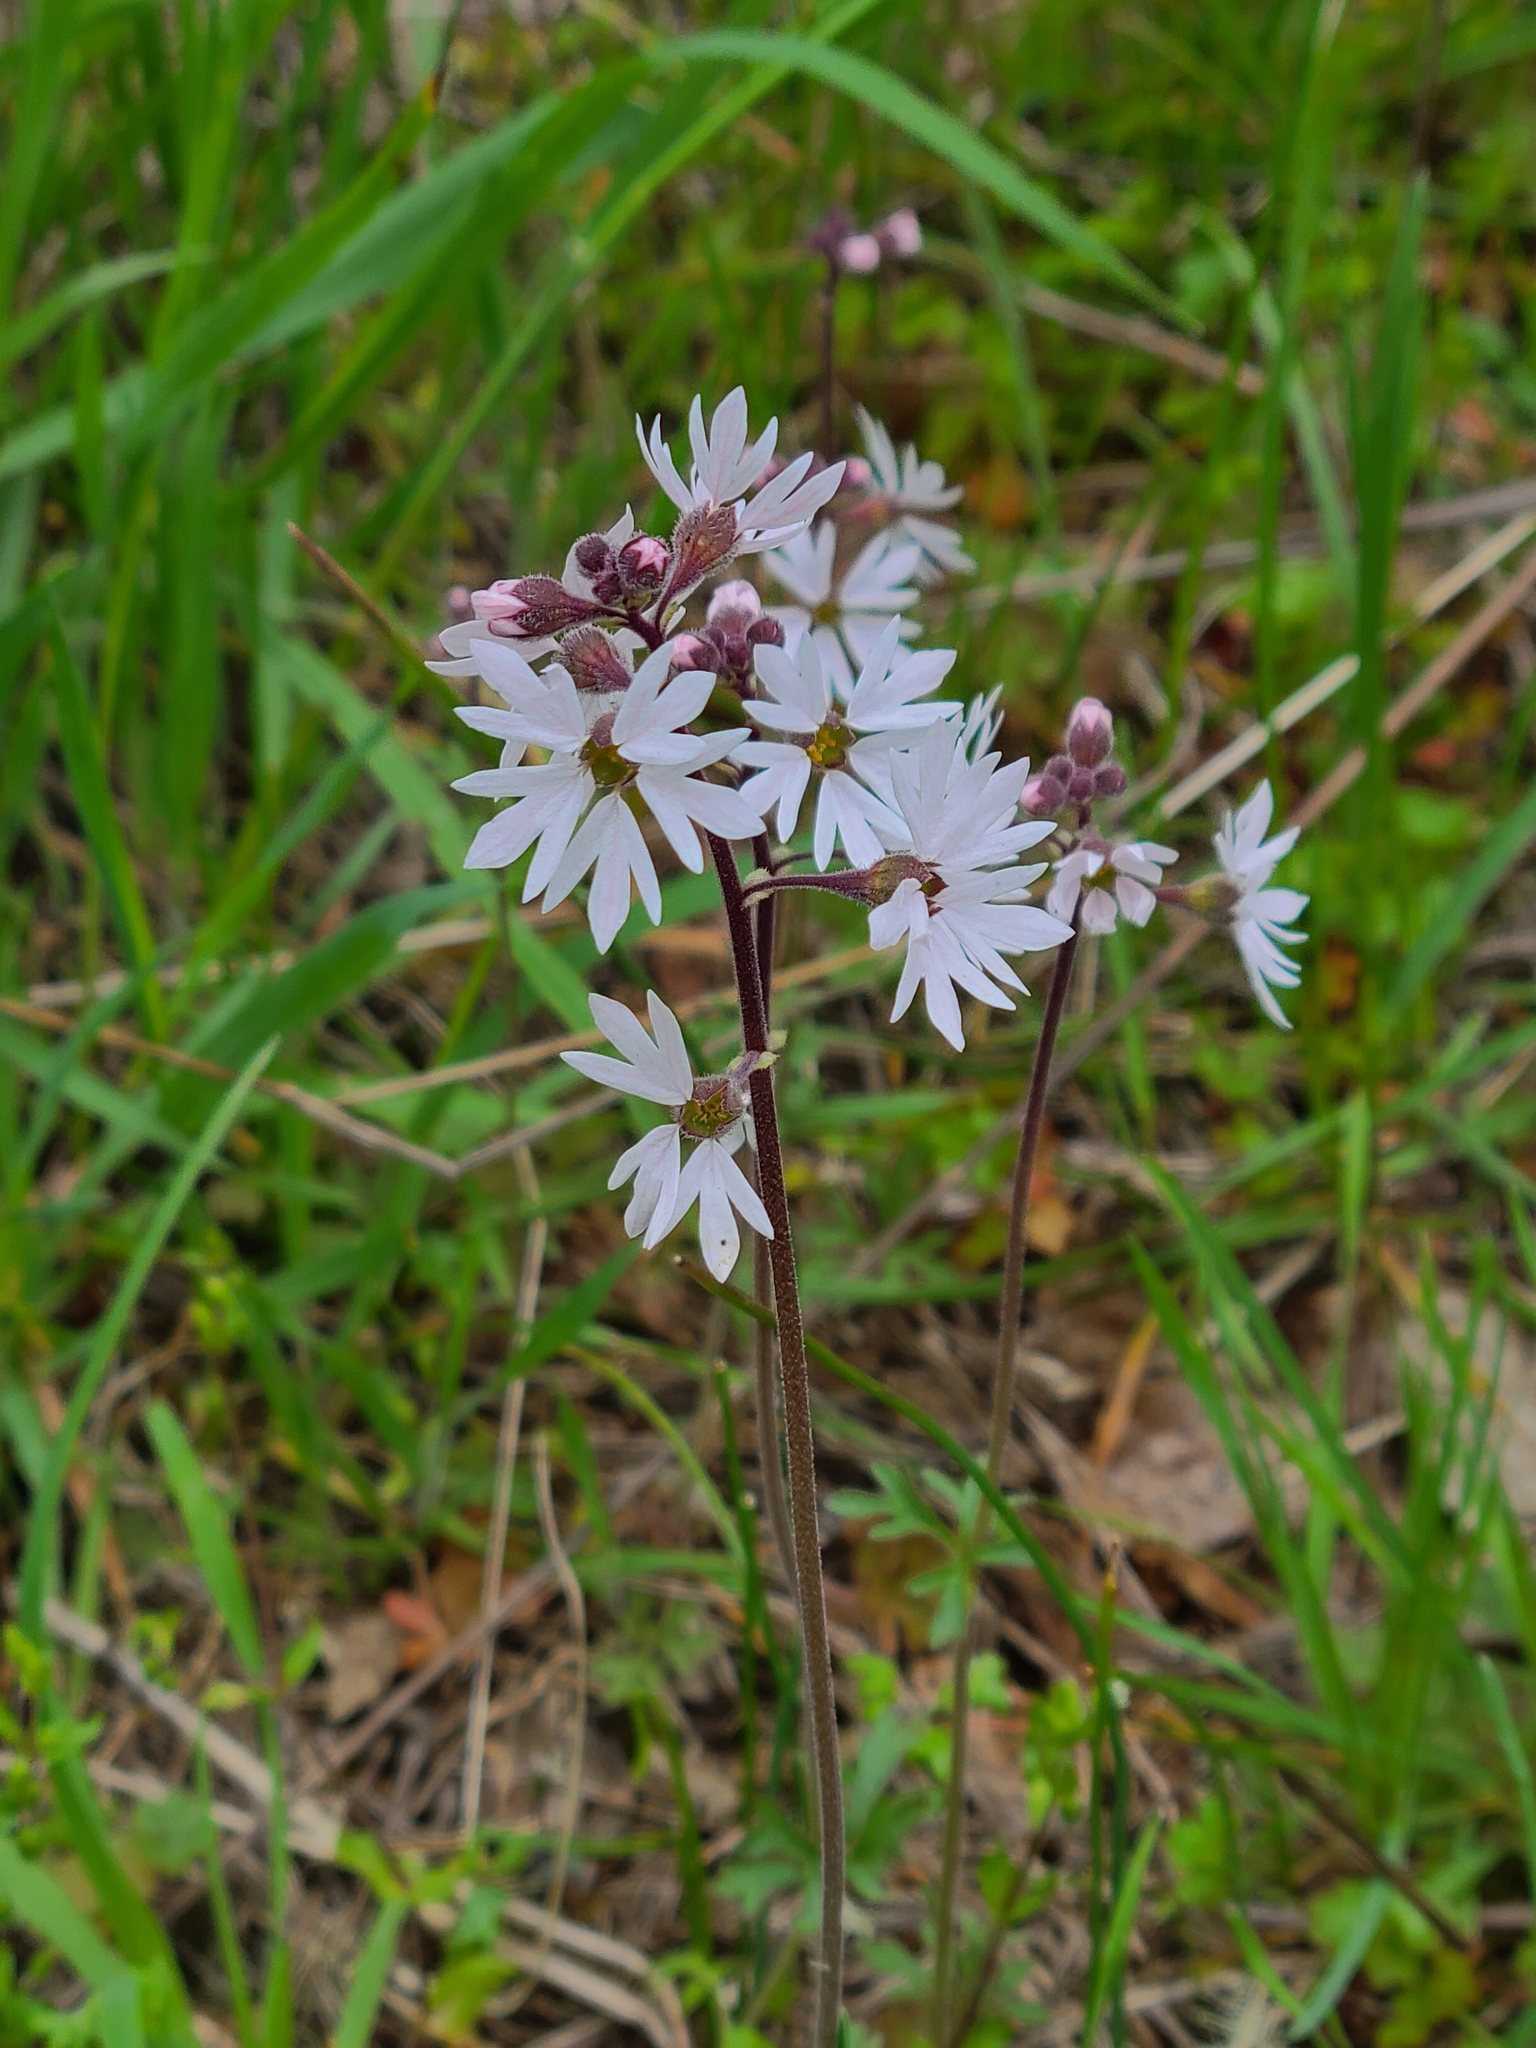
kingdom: Plantae
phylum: Tracheophyta
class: Magnoliopsida
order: Saxifragales
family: Saxifragaceae
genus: Lithophragma
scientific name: Lithophragma parviflorum
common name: Small-flowered fringe-cup
